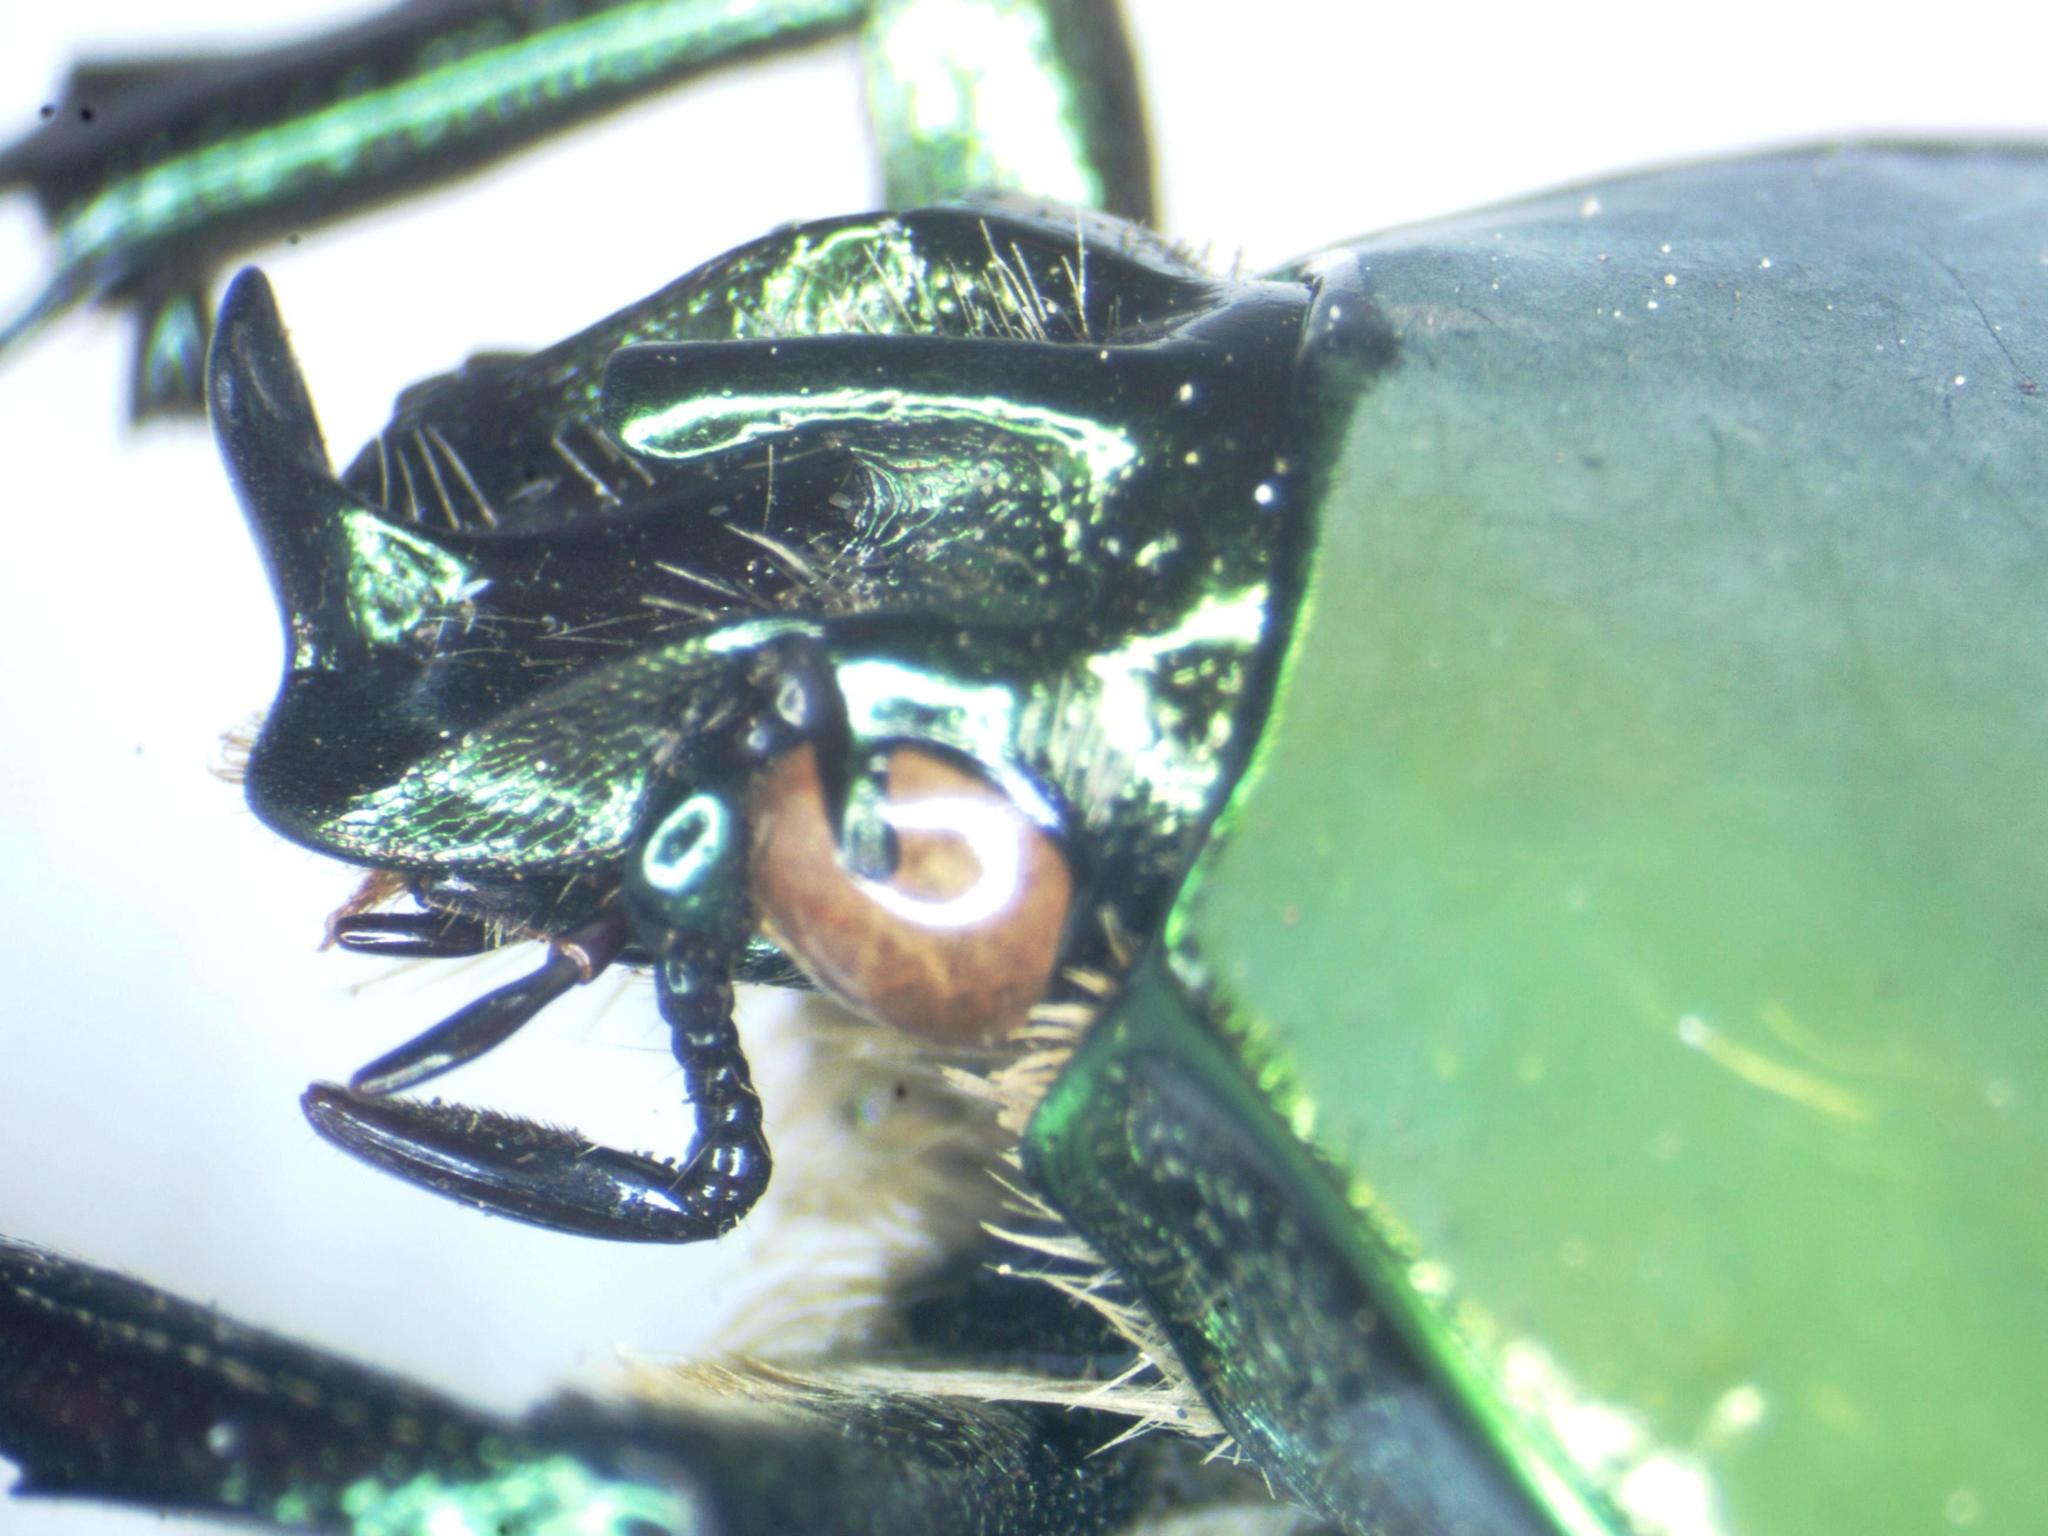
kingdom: Animalia
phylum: Arthropoda
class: Insecta
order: Coleoptera
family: Scarabaeidae
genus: Cotinis
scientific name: Cotinis mutabilis
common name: Figeater beetle
